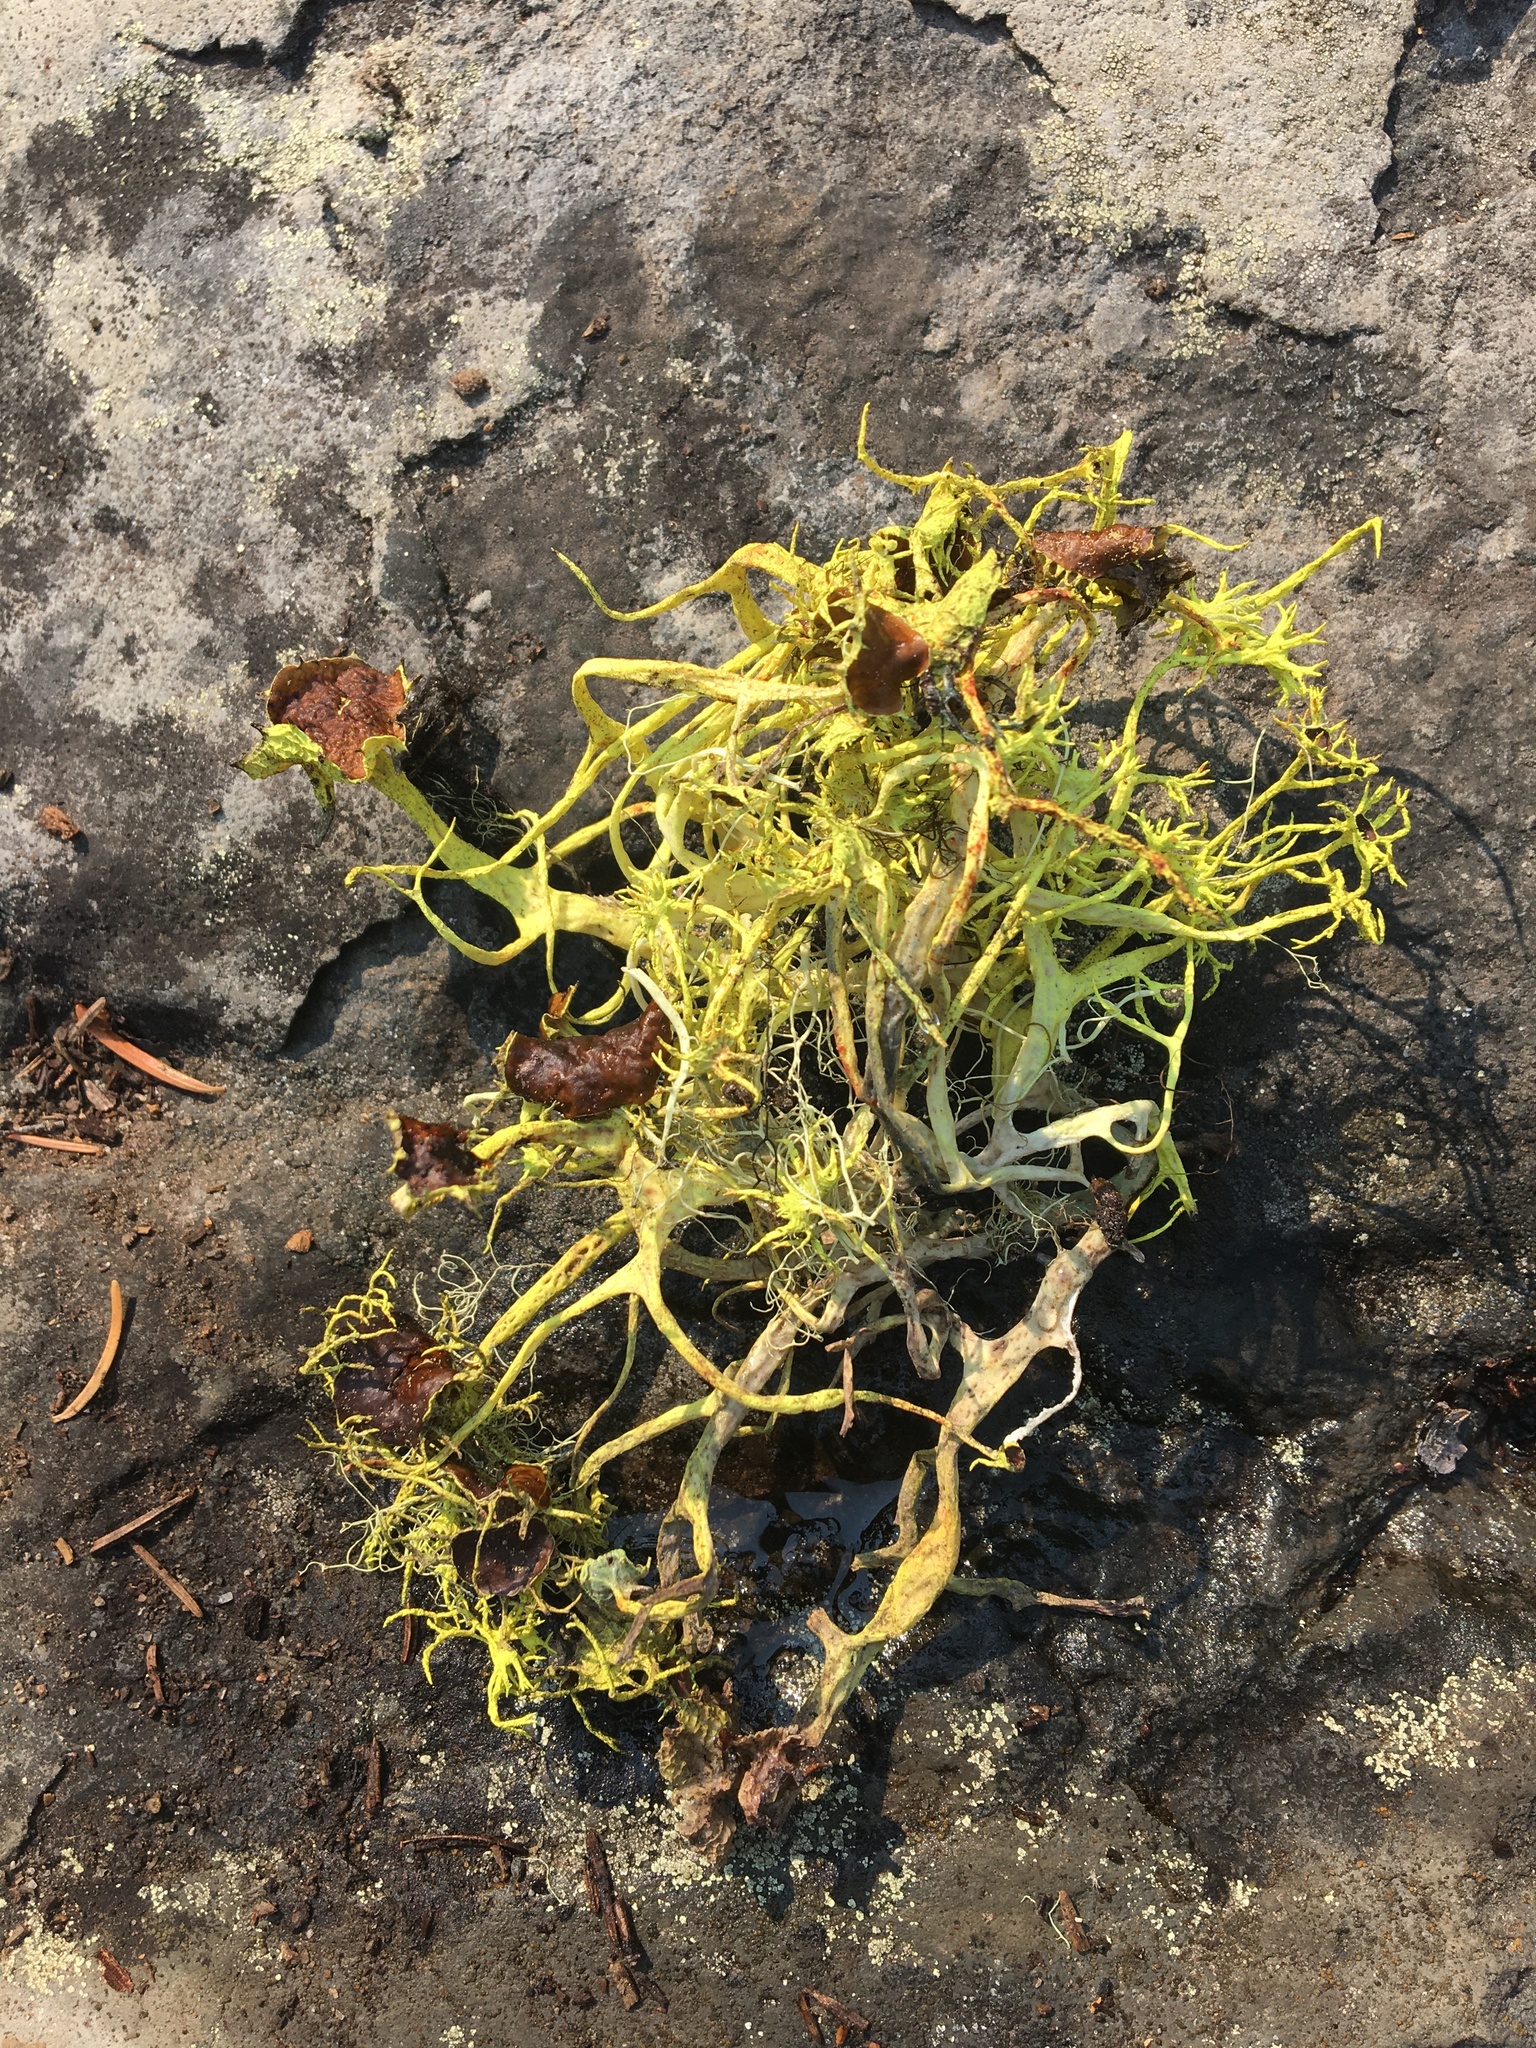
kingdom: Fungi
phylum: Ascomycota
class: Lecanoromycetes
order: Lecanorales
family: Parmeliaceae
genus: Letharia
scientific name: Letharia columbiana
